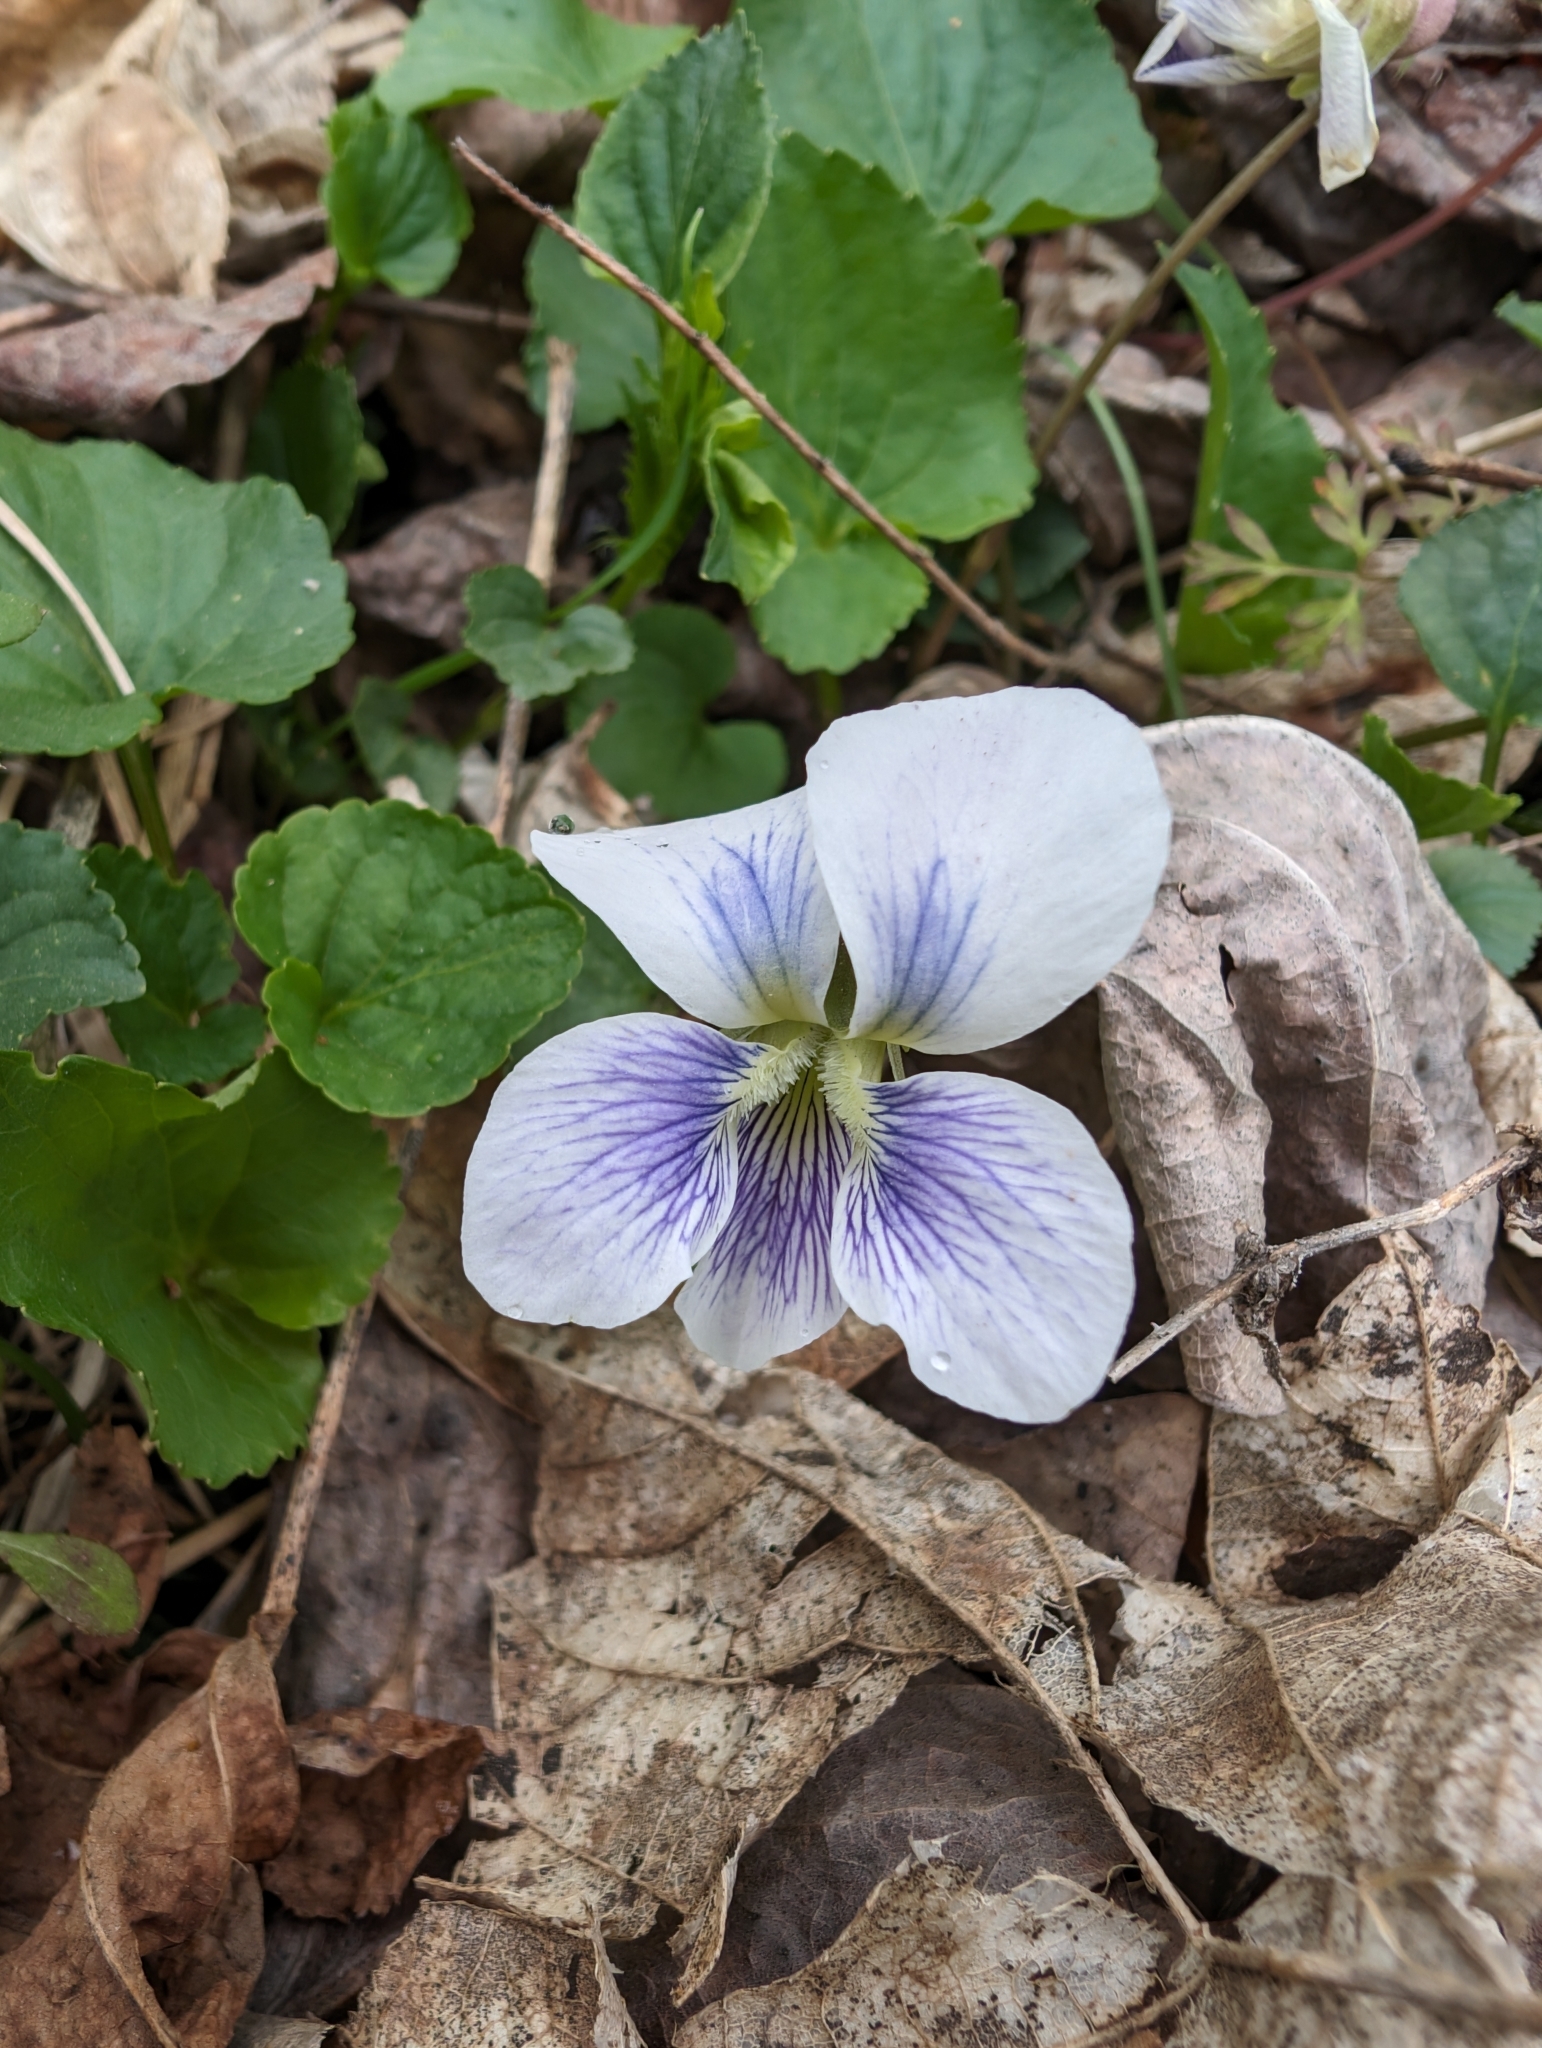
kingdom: Plantae
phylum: Tracheophyta
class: Magnoliopsida
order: Malpighiales
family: Violaceae
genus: Viola
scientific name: Viola sororia
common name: Dooryard violet
